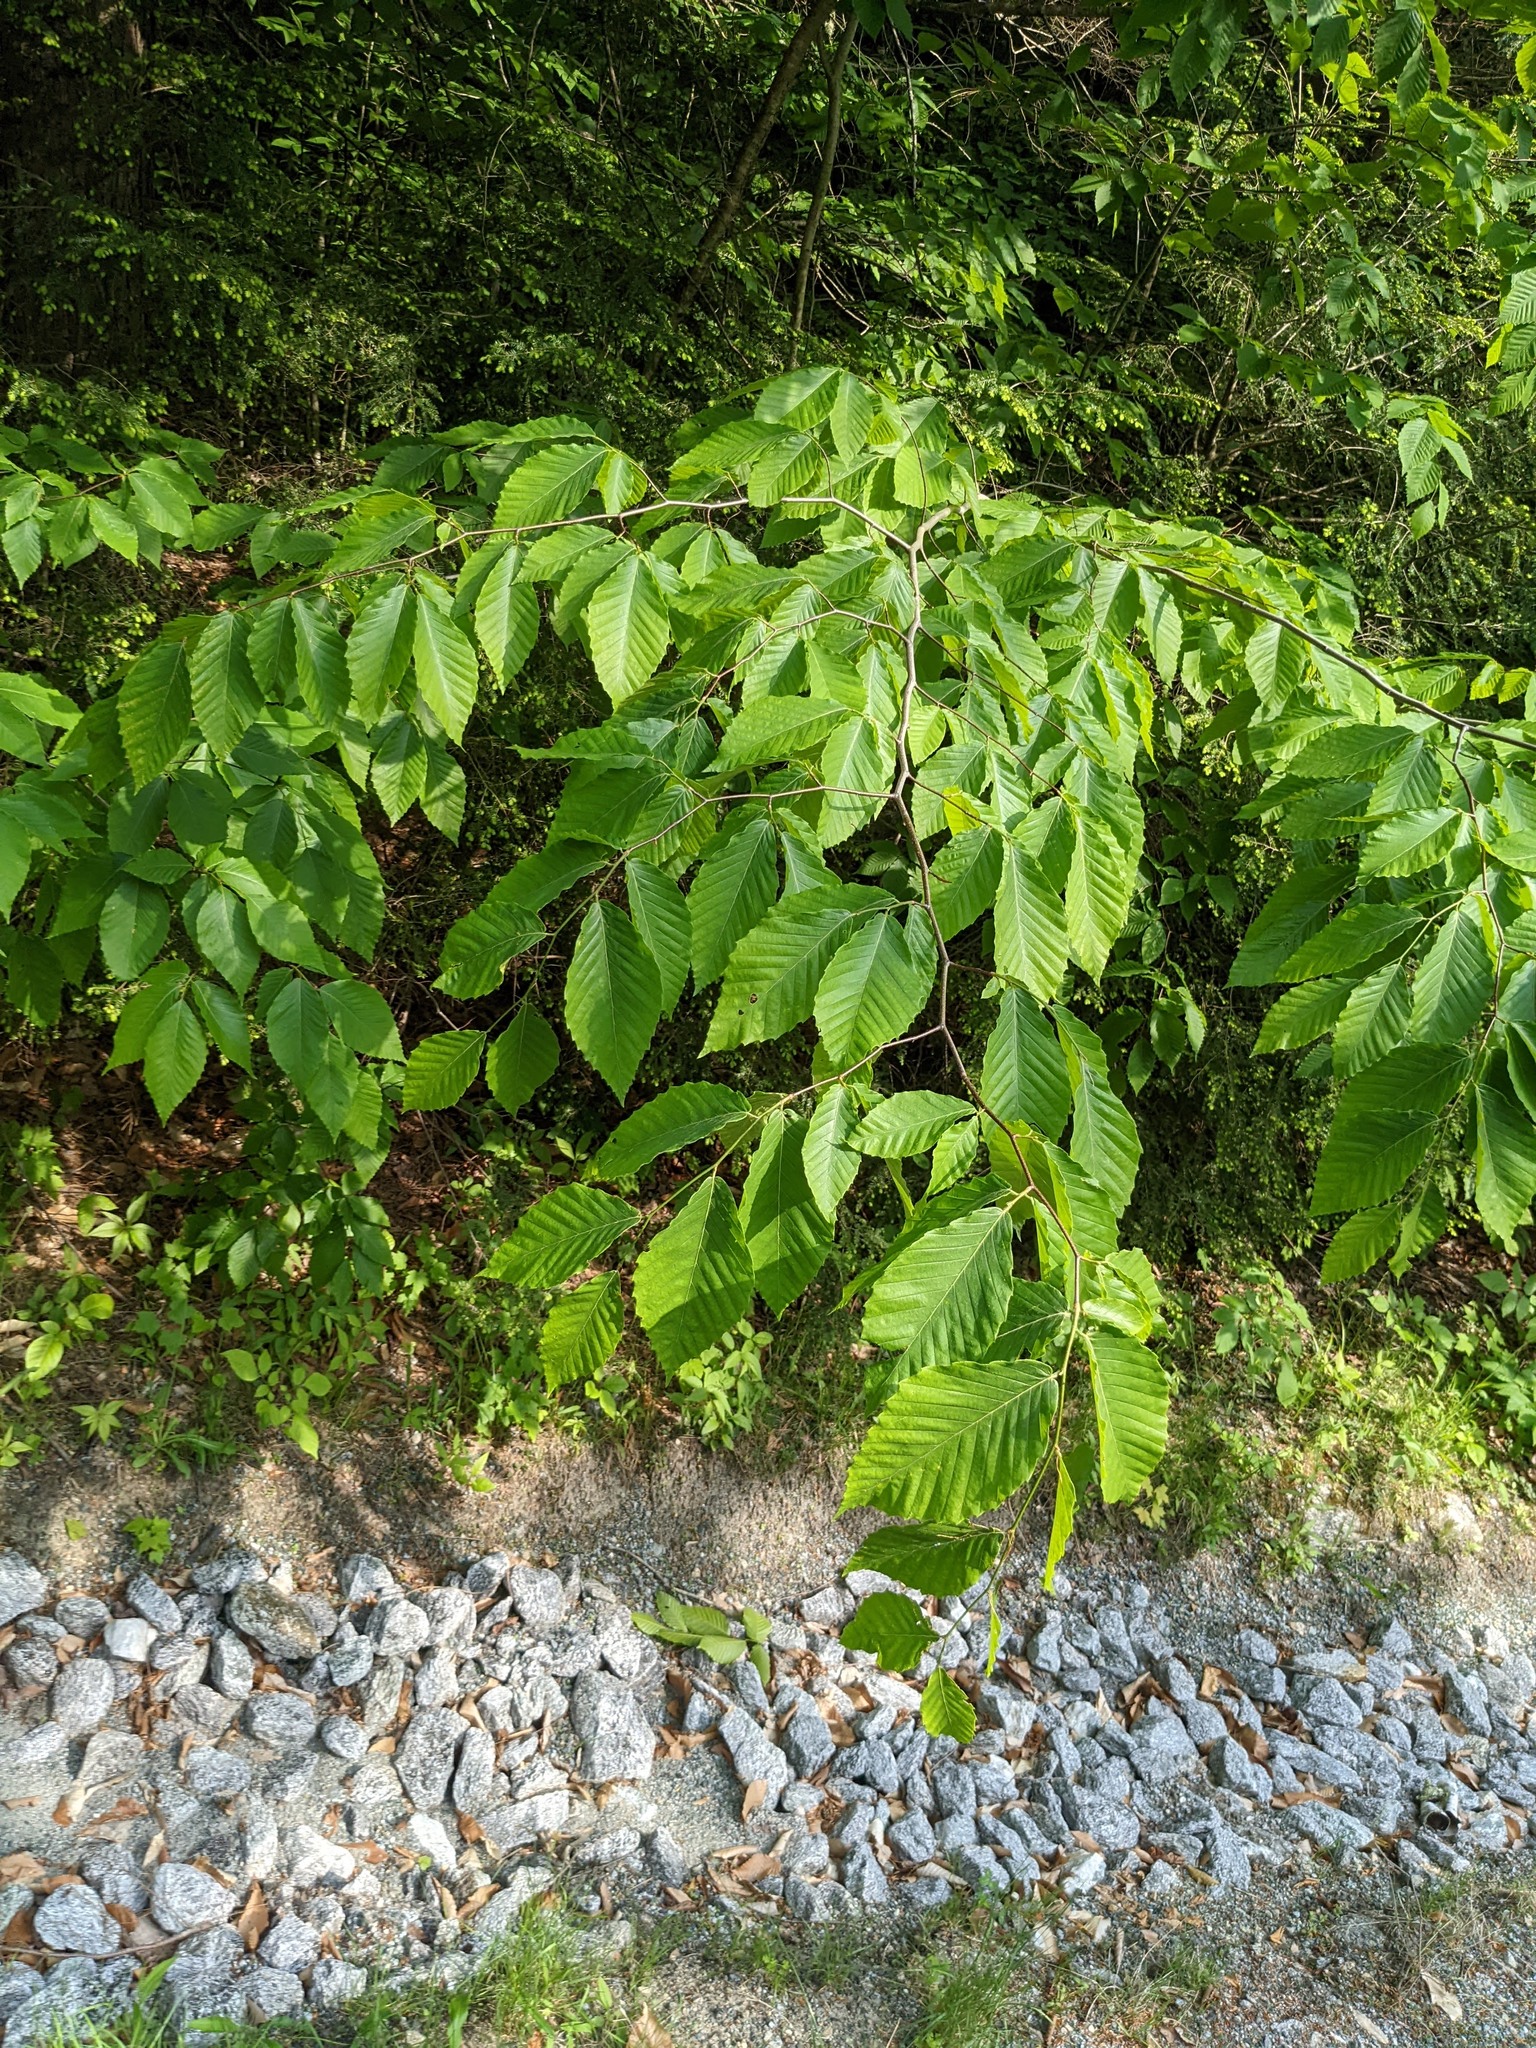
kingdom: Plantae
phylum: Tracheophyta
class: Magnoliopsida
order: Fagales
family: Fagaceae
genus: Fagus
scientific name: Fagus grandifolia
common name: American beech
